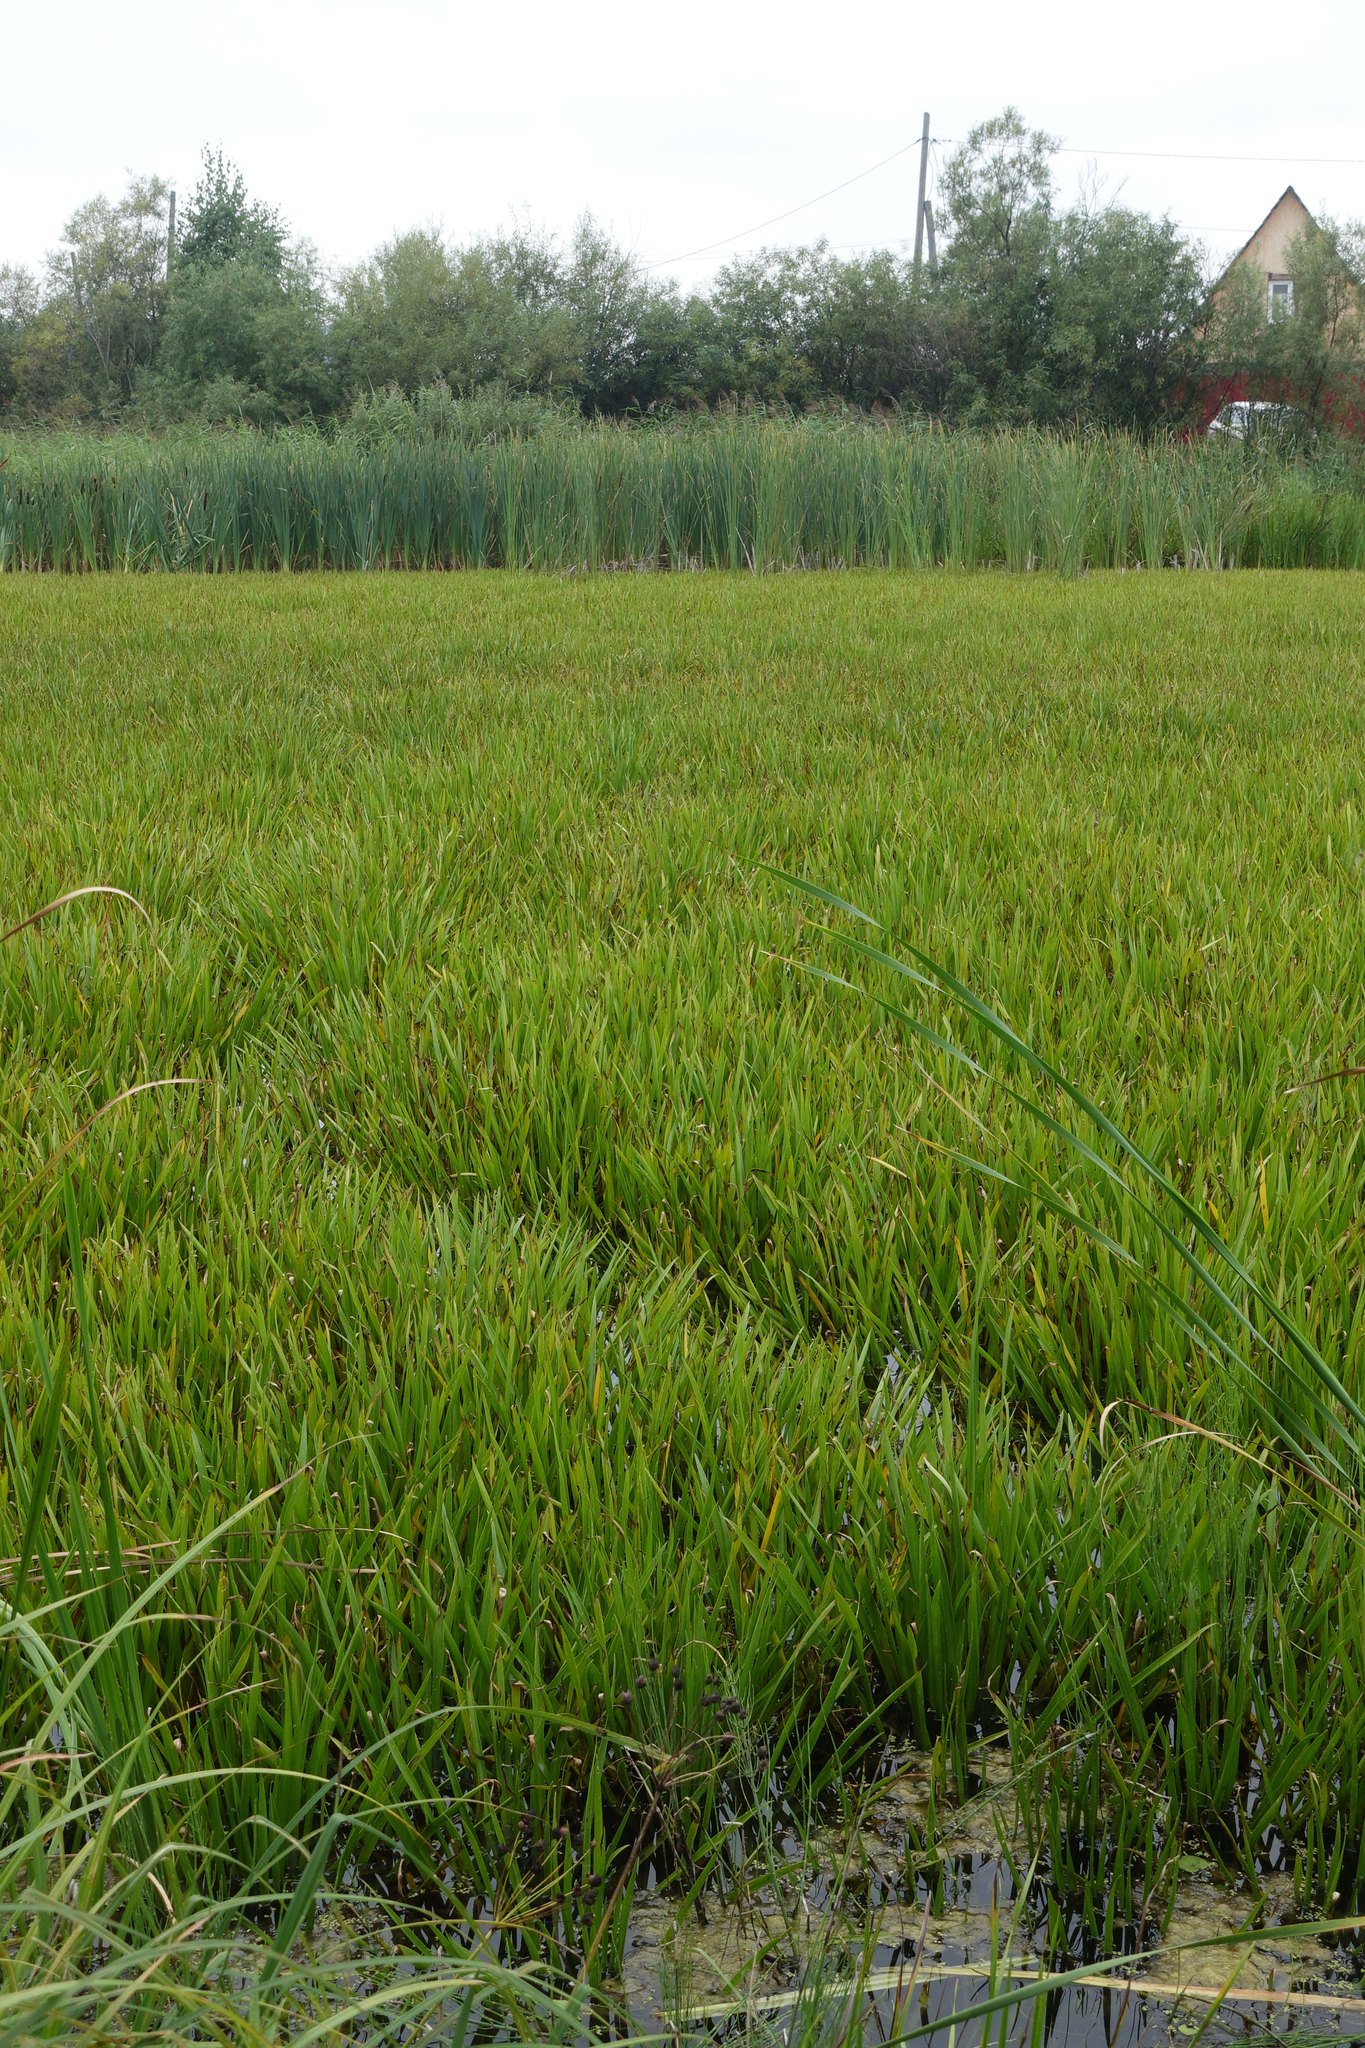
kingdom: Plantae
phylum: Tracheophyta
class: Liliopsida
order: Alismatales
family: Hydrocharitaceae
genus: Stratiotes
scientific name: Stratiotes aloides
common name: Water-soldier
